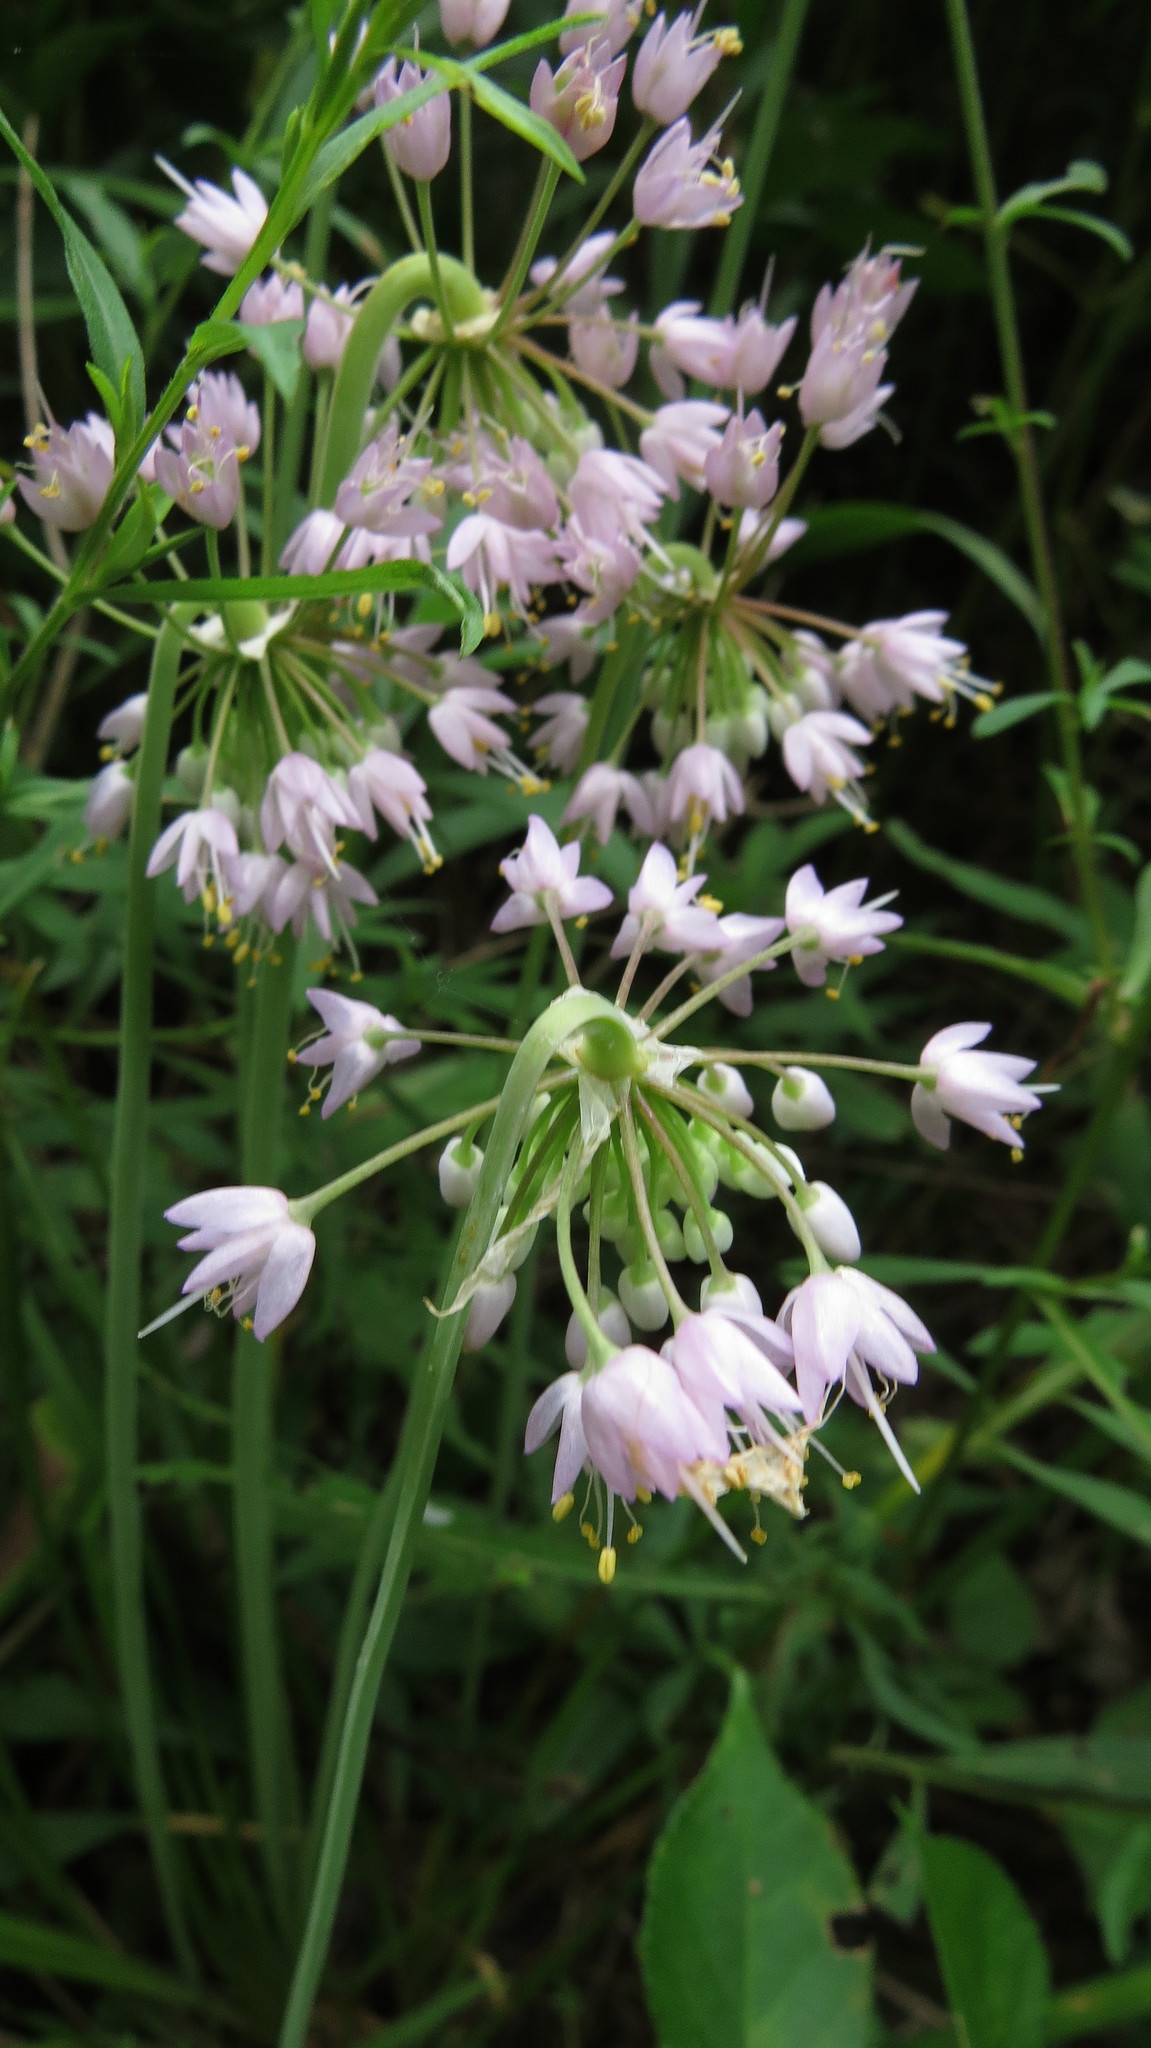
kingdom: Plantae
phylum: Tracheophyta
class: Liliopsida
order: Asparagales
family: Amaryllidaceae
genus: Allium
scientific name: Allium cernuum
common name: Nodding onion
